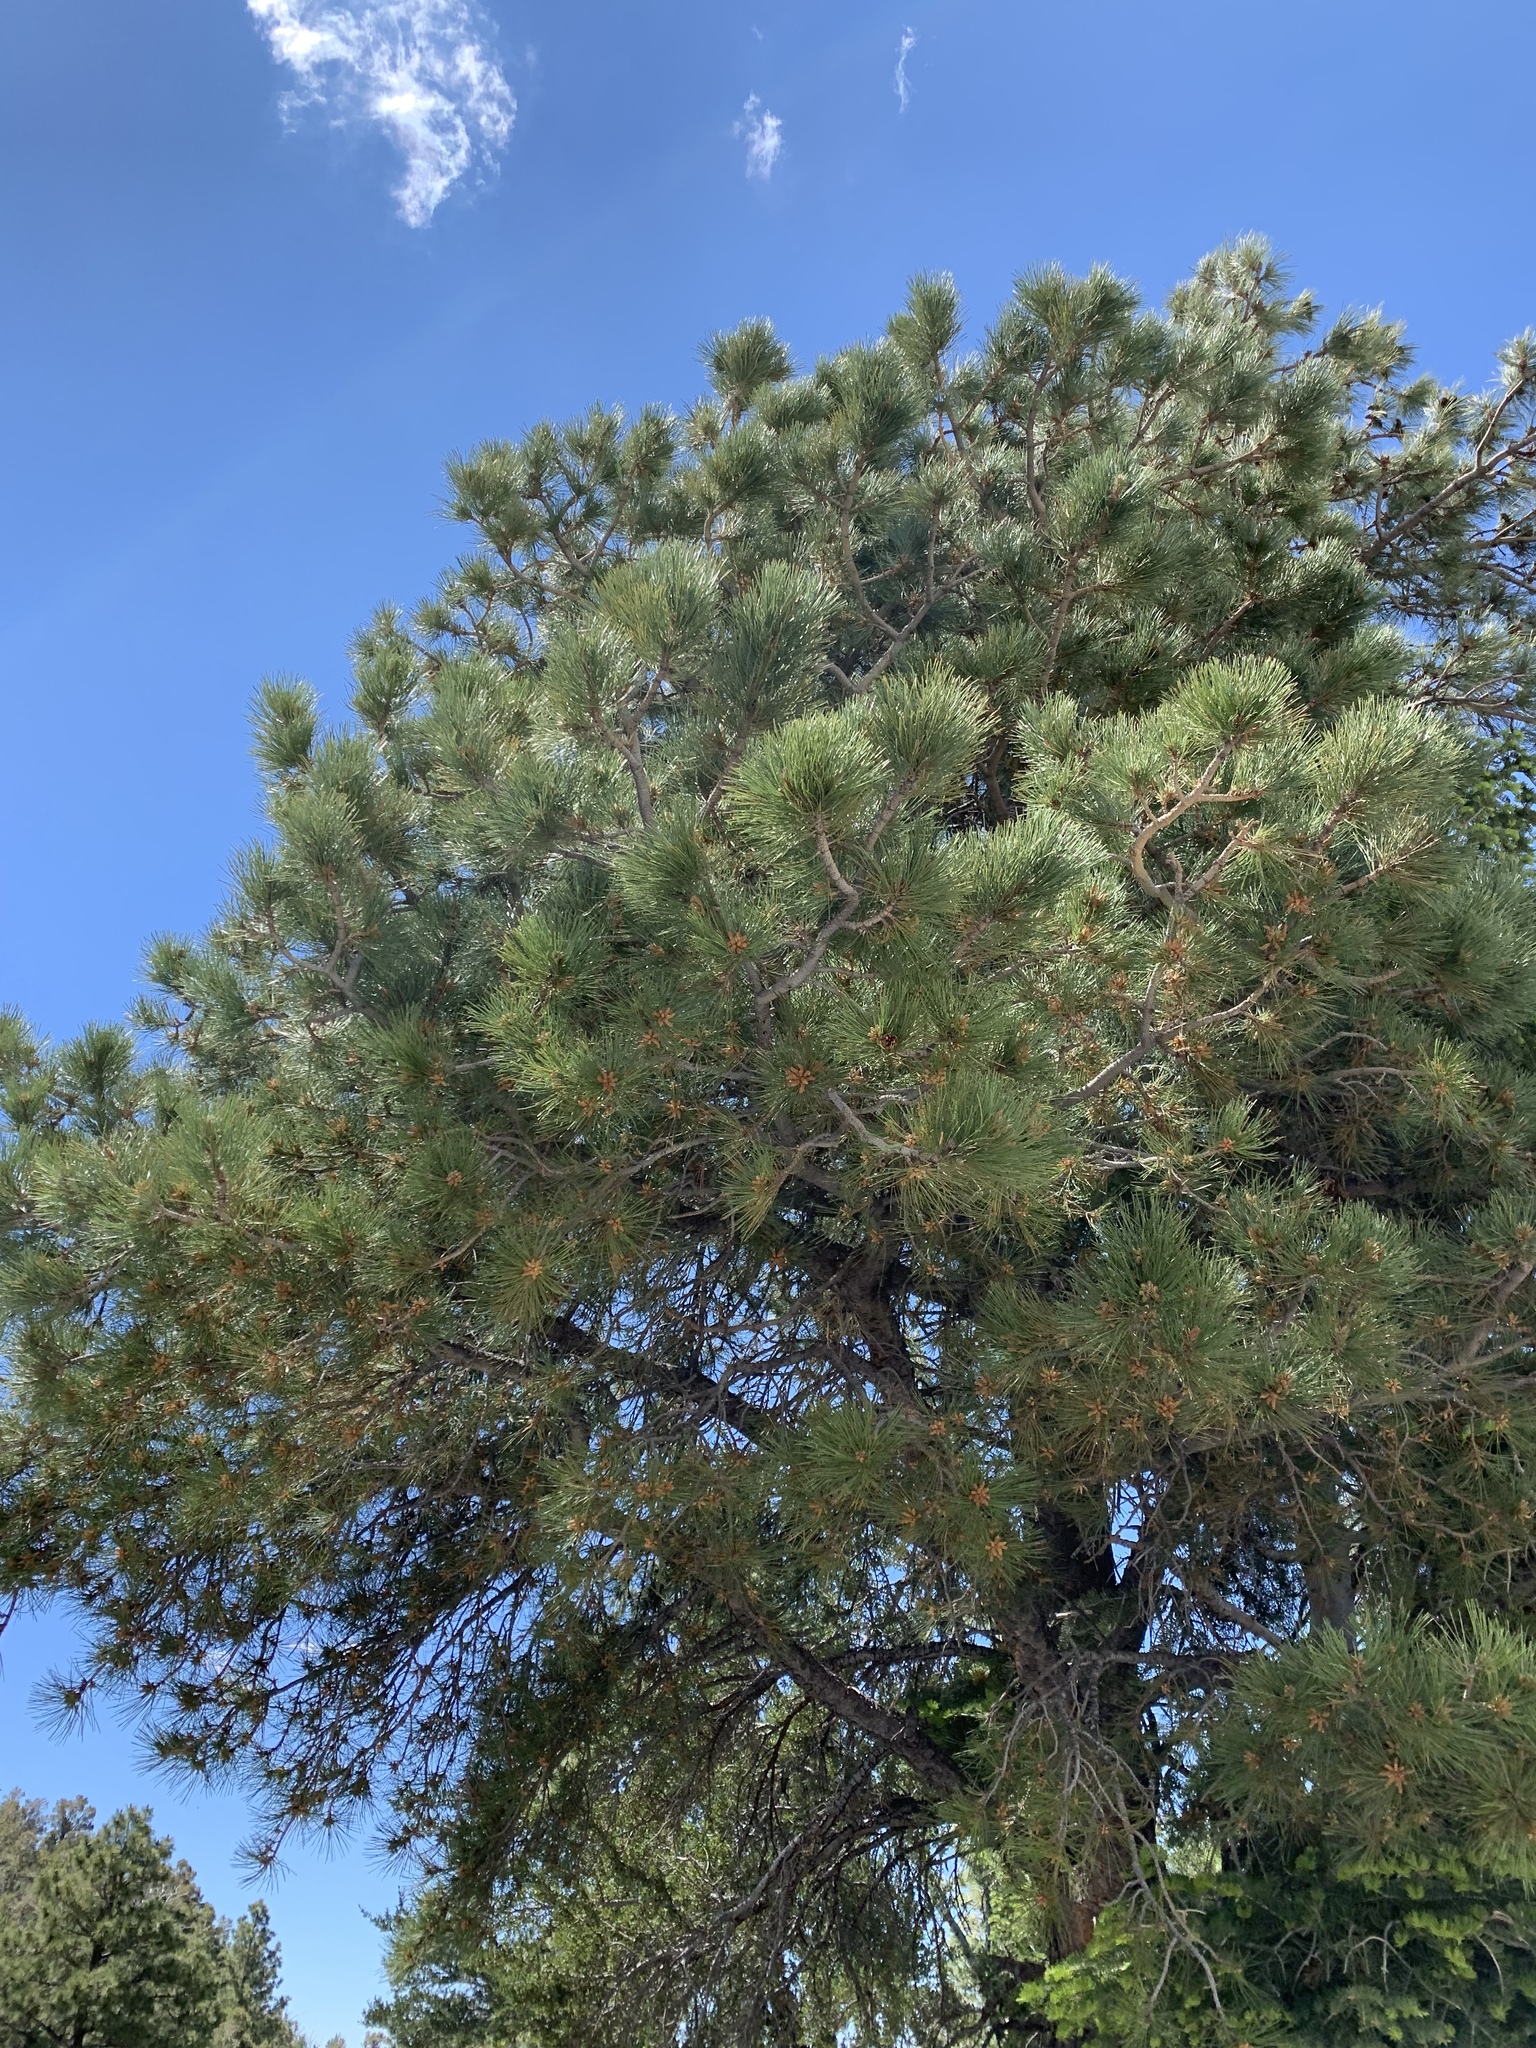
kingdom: Plantae
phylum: Tracheophyta
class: Pinopsida
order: Pinales
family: Pinaceae
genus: Pinus
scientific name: Pinus ponderosa
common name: Western yellow-pine
